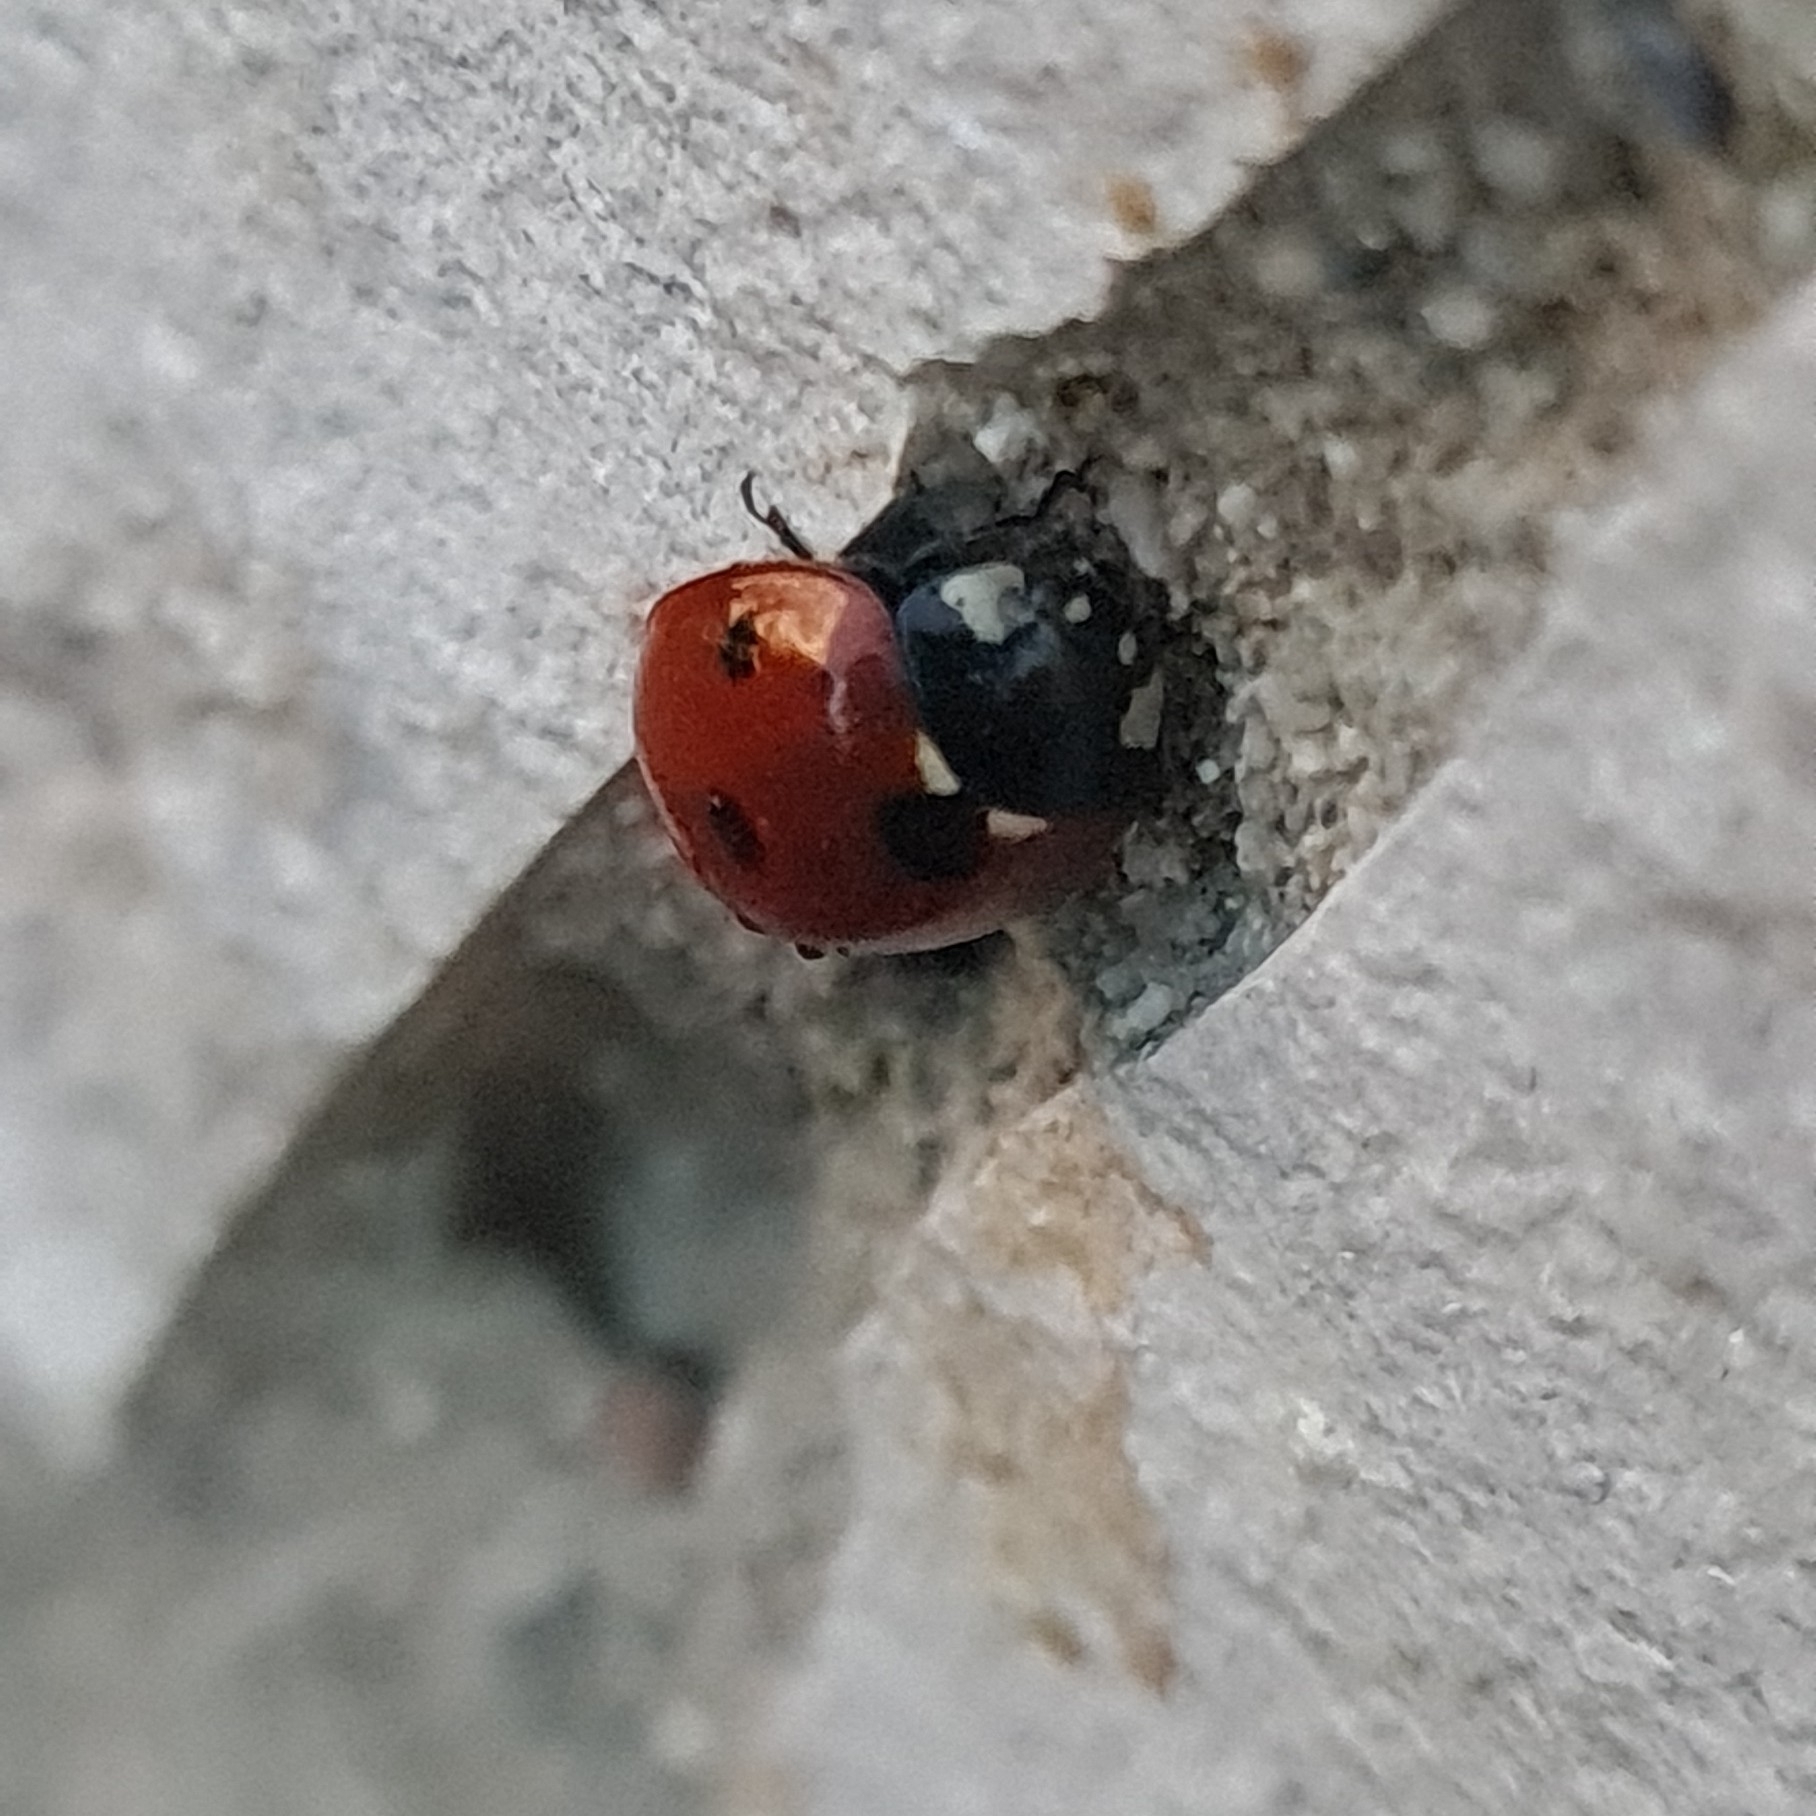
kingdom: Animalia
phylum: Arthropoda
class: Insecta
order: Coleoptera
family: Coccinellidae
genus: Coccinella
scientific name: Coccinella septempunctata
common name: Sevenspotted lady beetle
